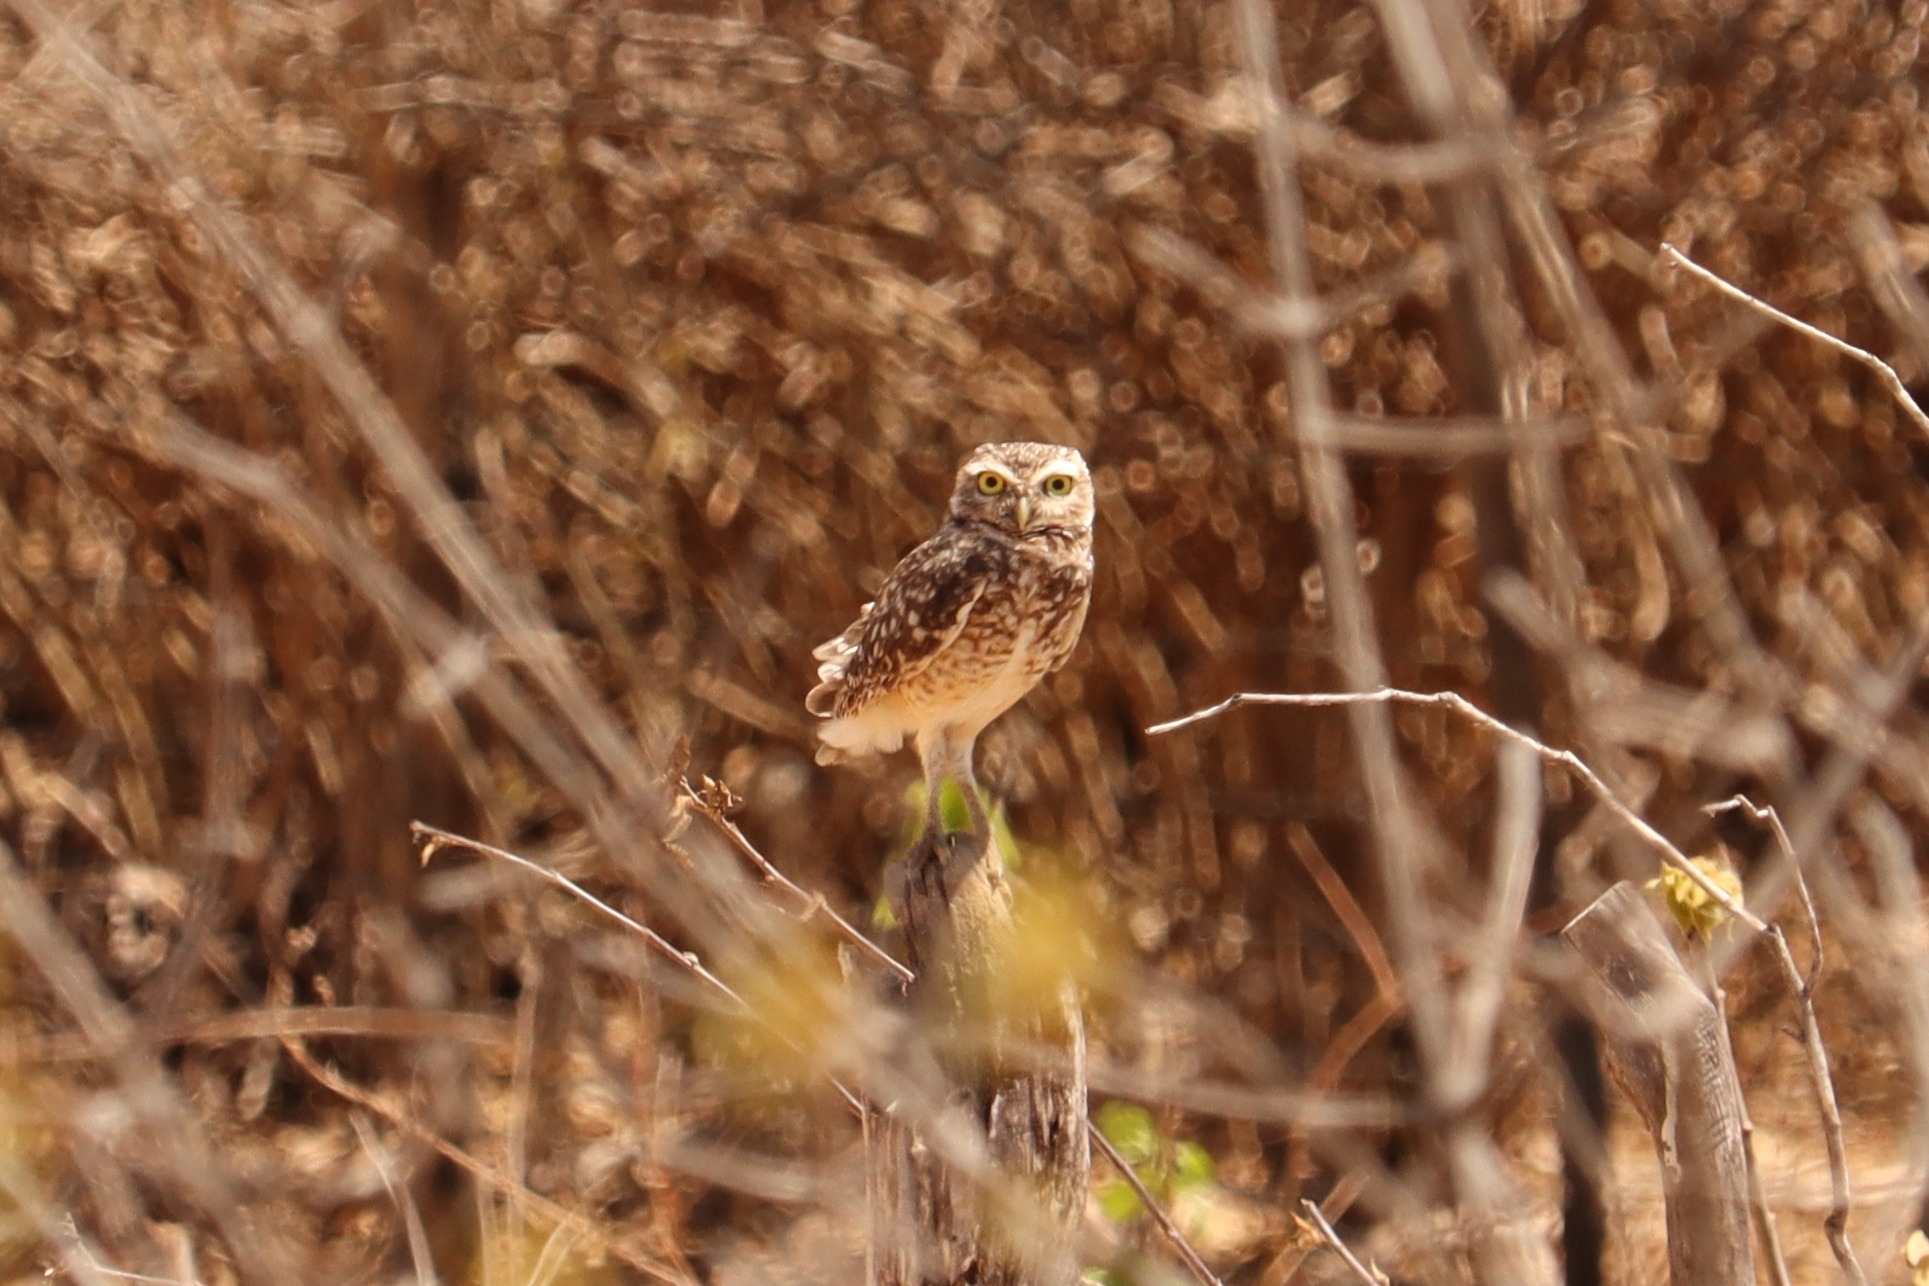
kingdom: Animalia
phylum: Chordata
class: Aves
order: Strigiformes
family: Strigidae
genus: Athene
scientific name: Athene cunicularia
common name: Burrowing owl
